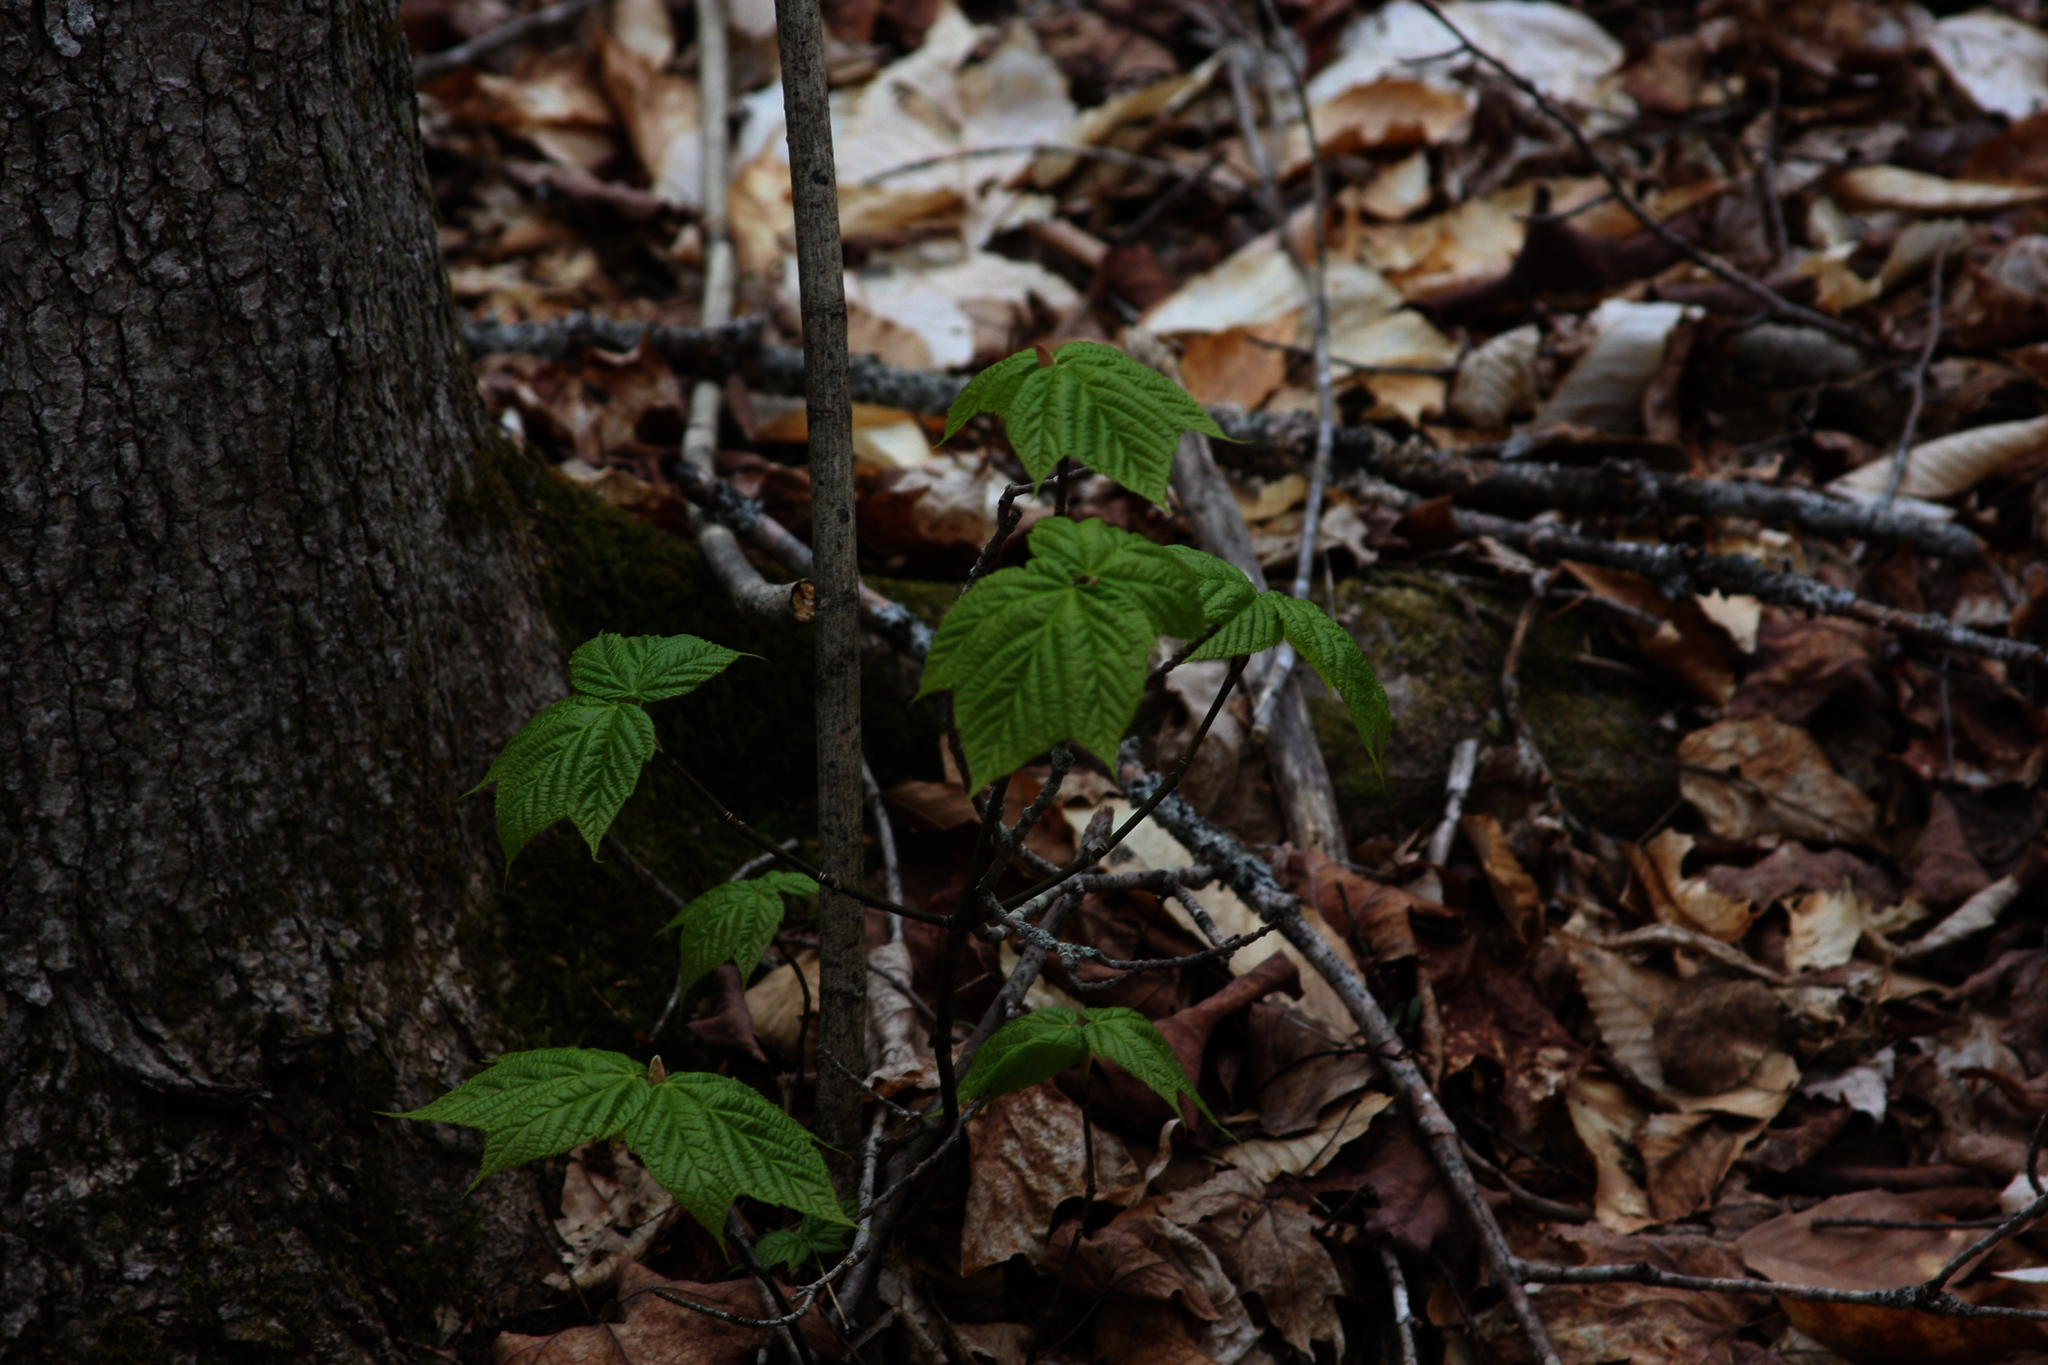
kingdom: Plantae
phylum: Tracheophyta
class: Magnoliopsida
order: Sapindales
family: Sapindaceae
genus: Acer
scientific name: Acer pensylvanicum
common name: Moosewood
